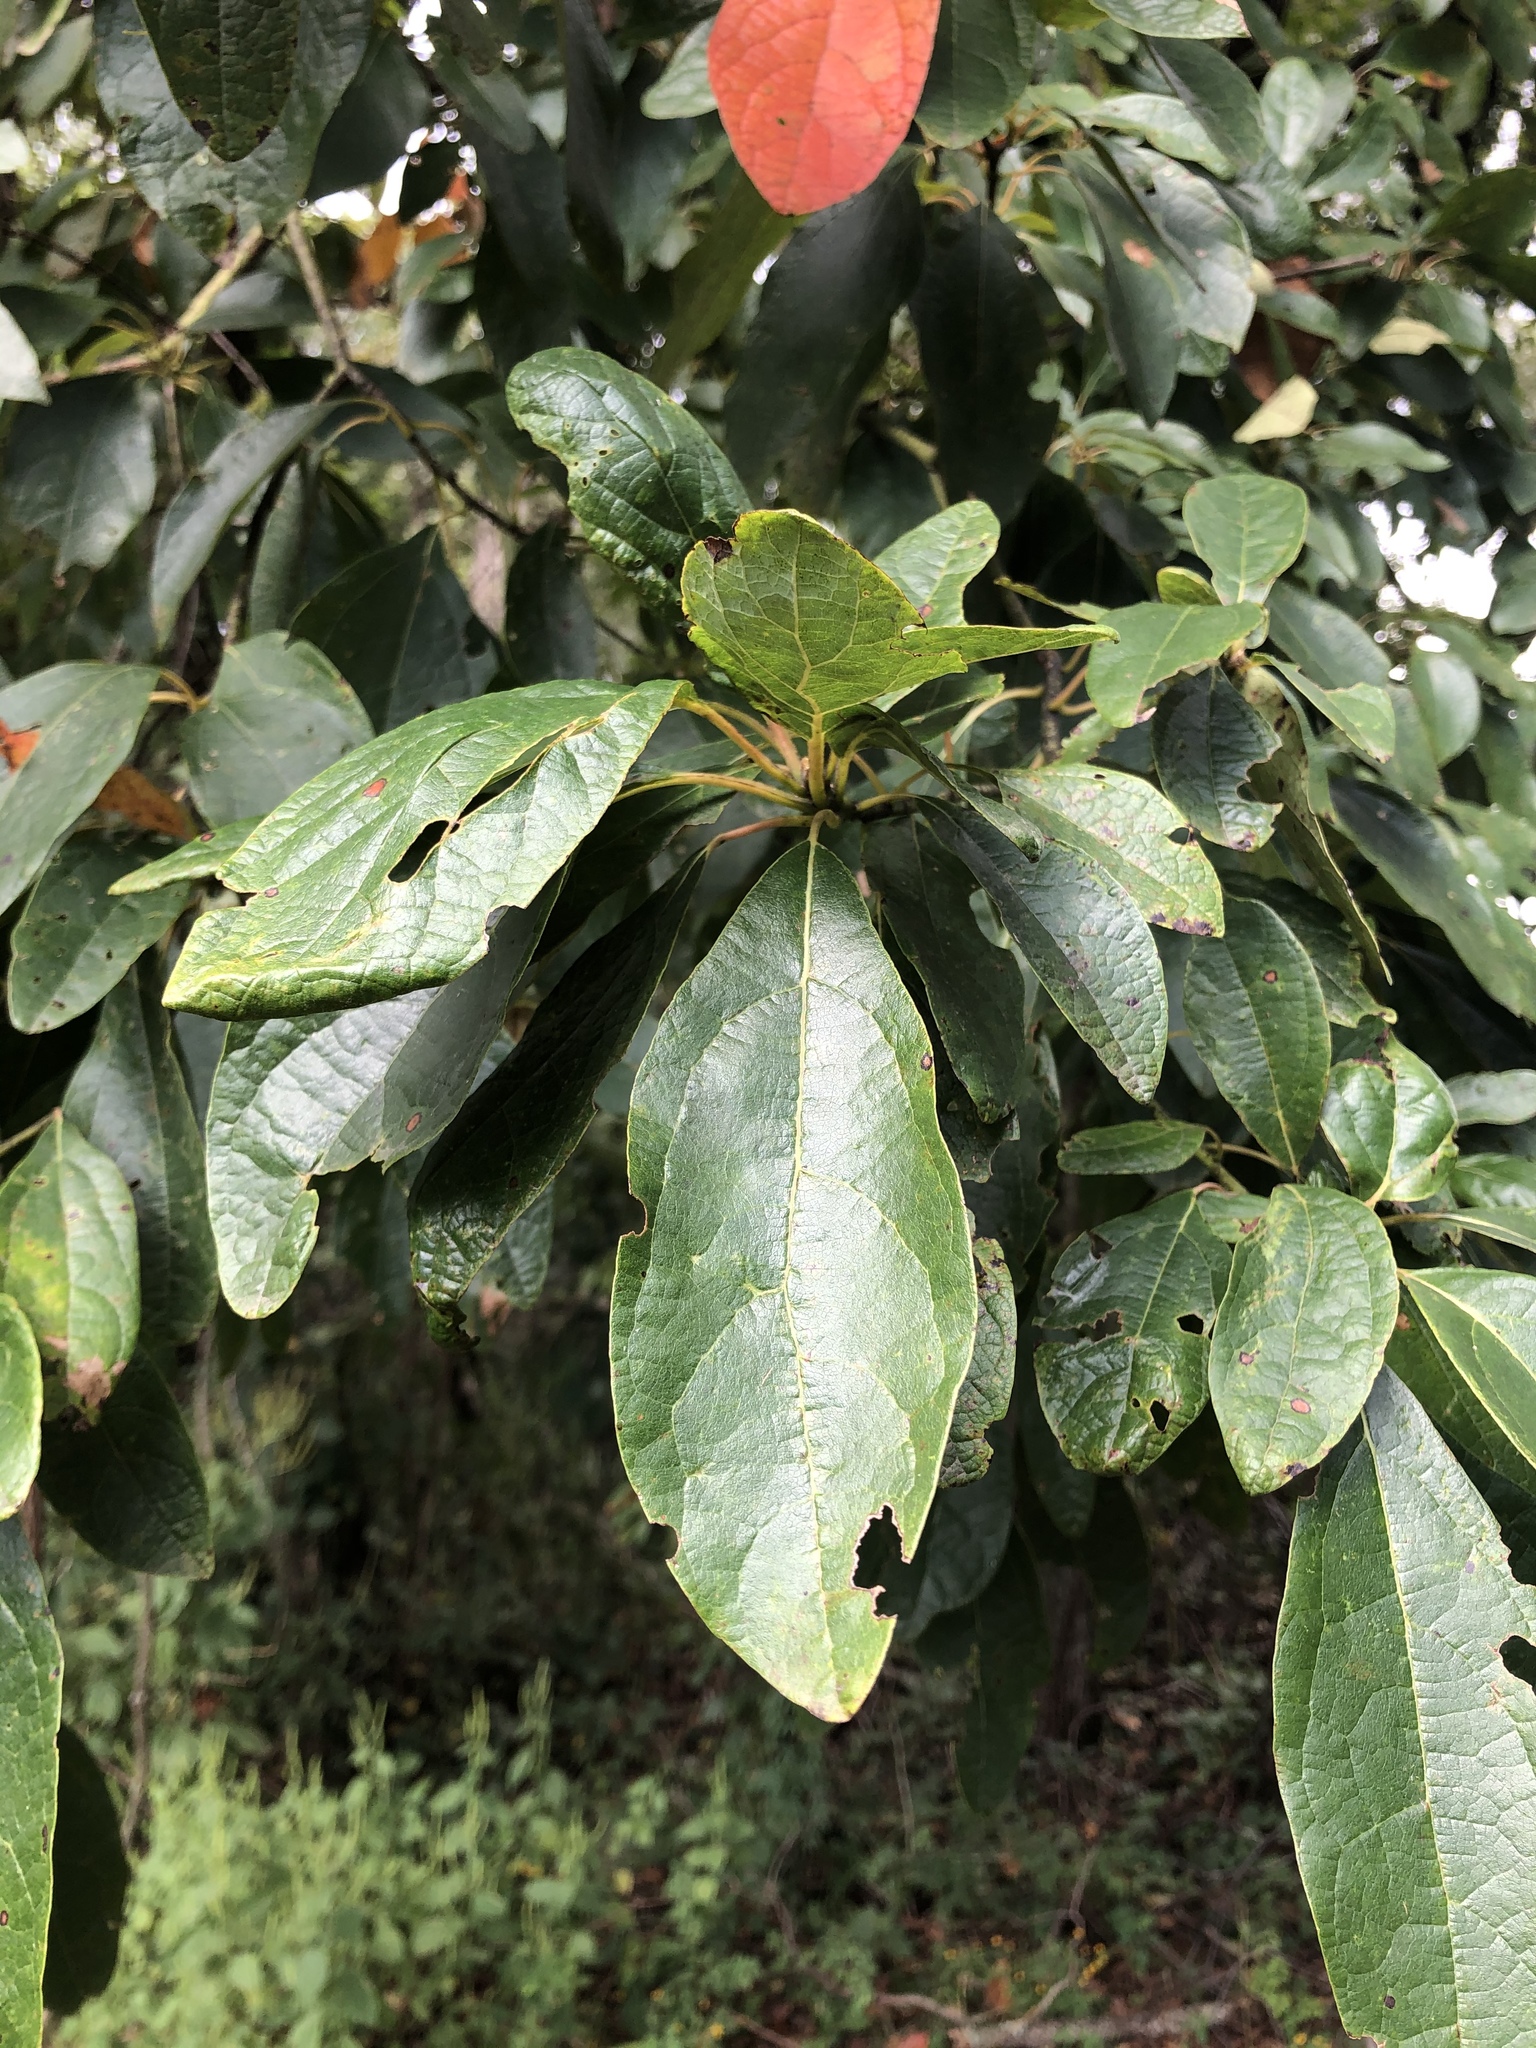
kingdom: Plantae
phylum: Tracheophyta
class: Magnoliopsida
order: Laurales
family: Lauraceae
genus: Sassafras
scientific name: Sassafras albidum
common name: Sassafras
